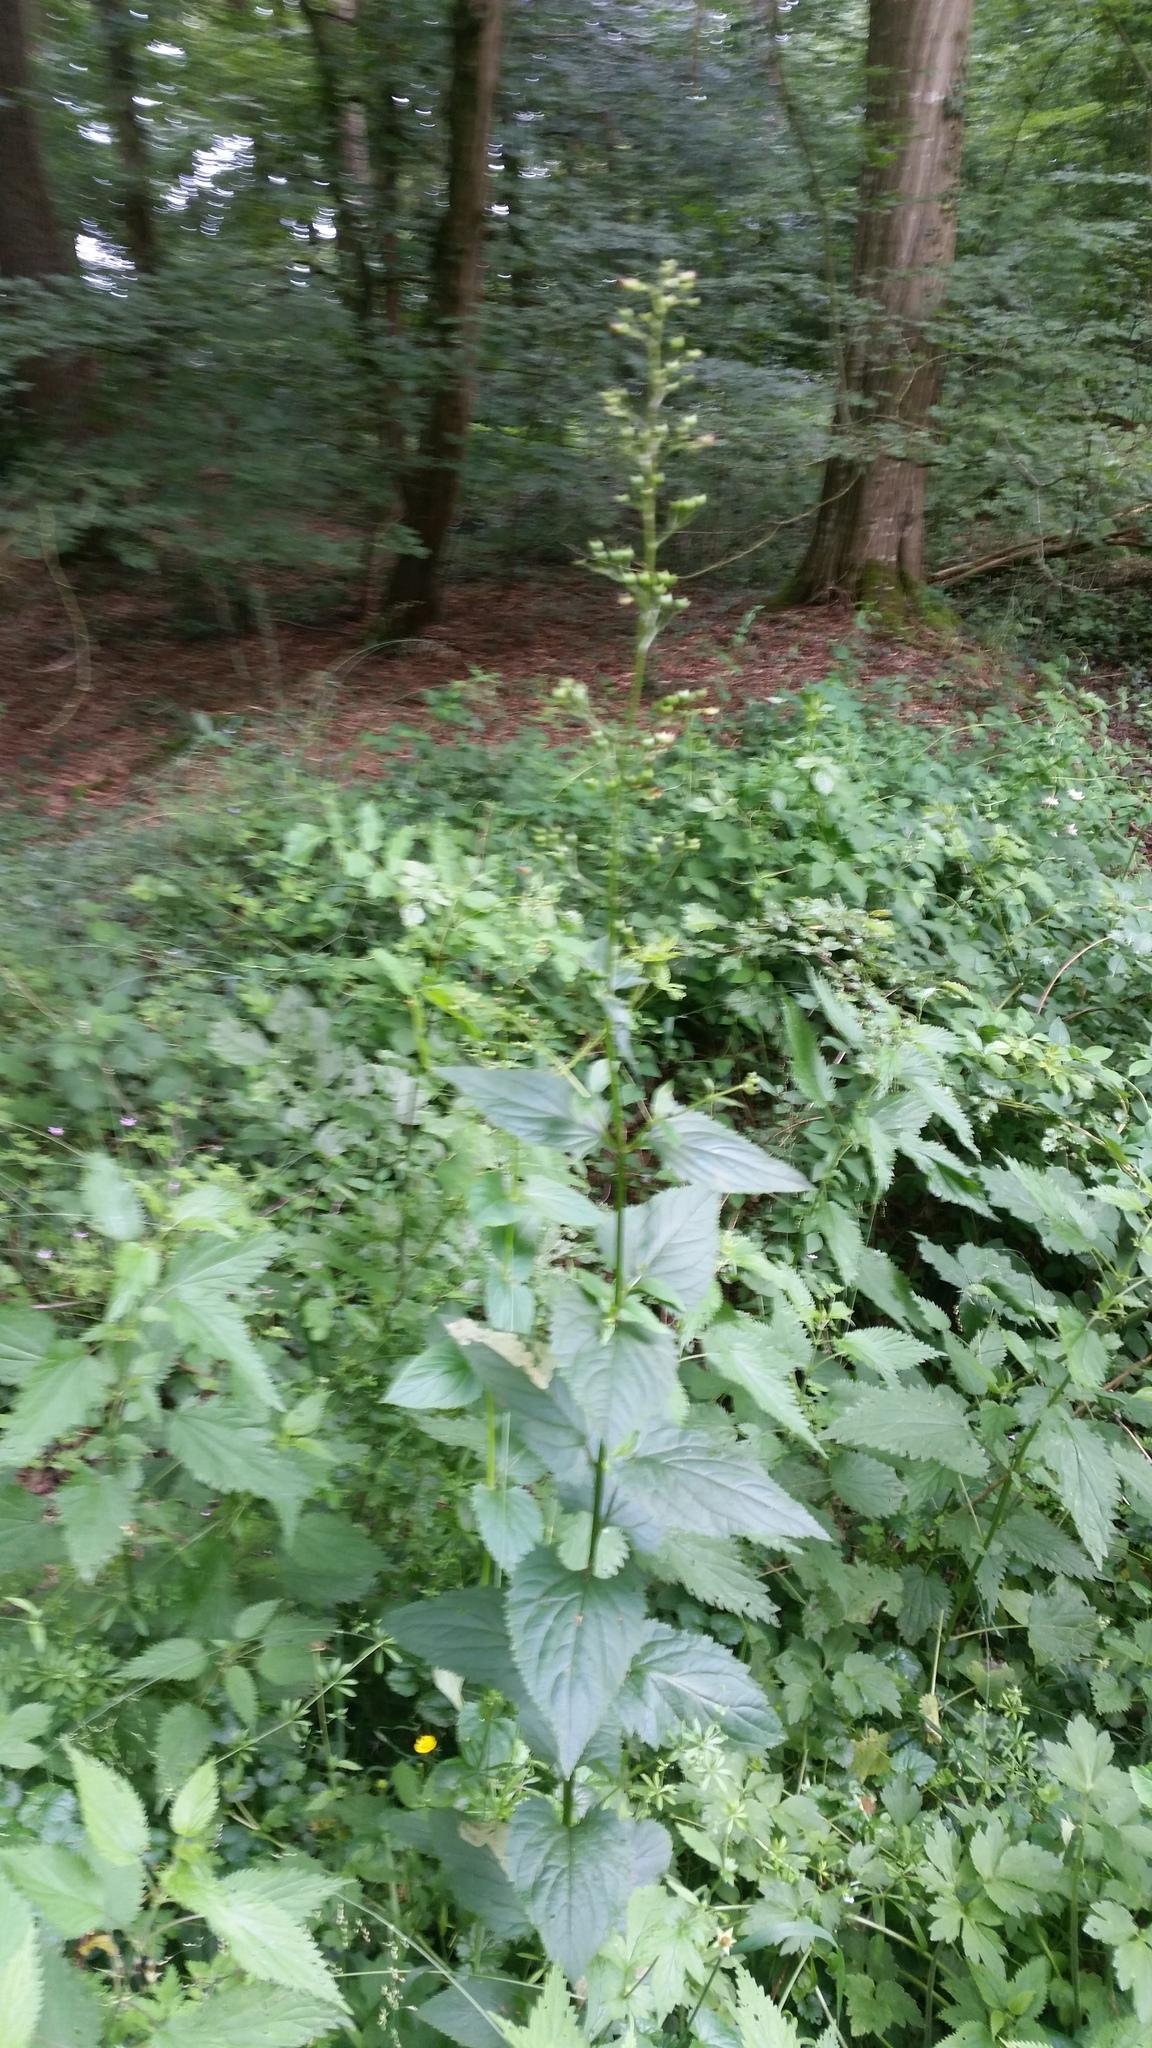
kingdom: Plantae
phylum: Tracheophyta
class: Magnoliopsida
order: Lamiales
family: Scrophulariaceae
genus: Scrophularia
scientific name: Scrophularia nodosa
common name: Common figwort
